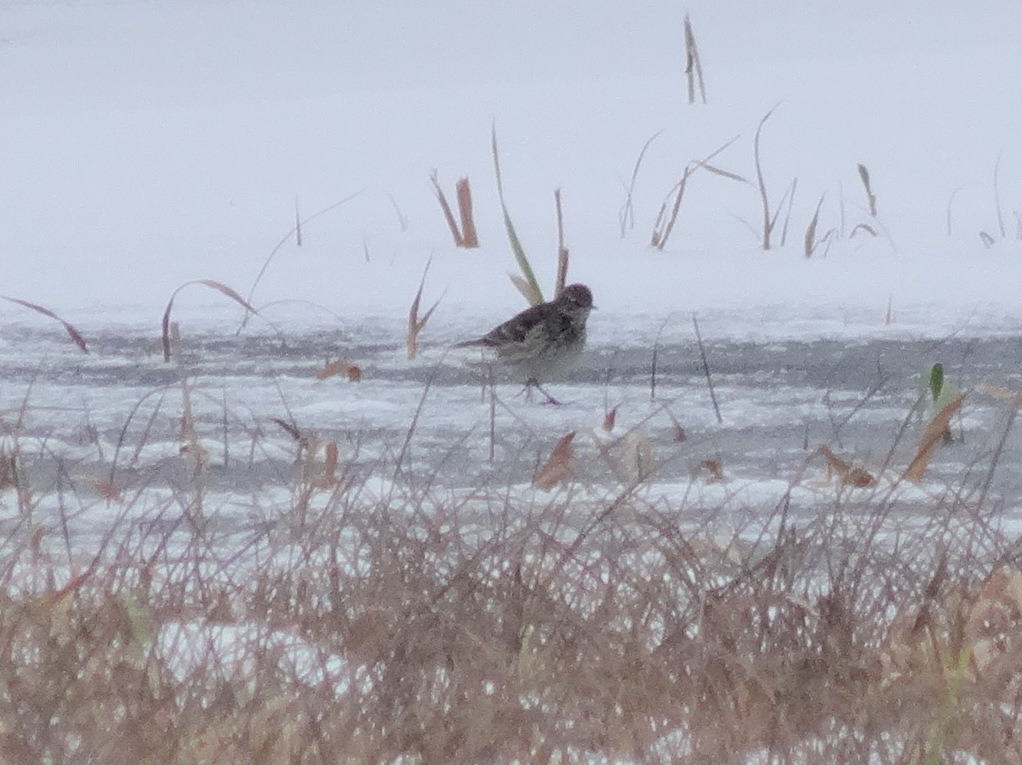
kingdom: Animalia
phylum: Chordata
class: Aves
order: Passeriformes
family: Motacillidae
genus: Anthus
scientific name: Anthus spinoletta
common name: Water pipit
